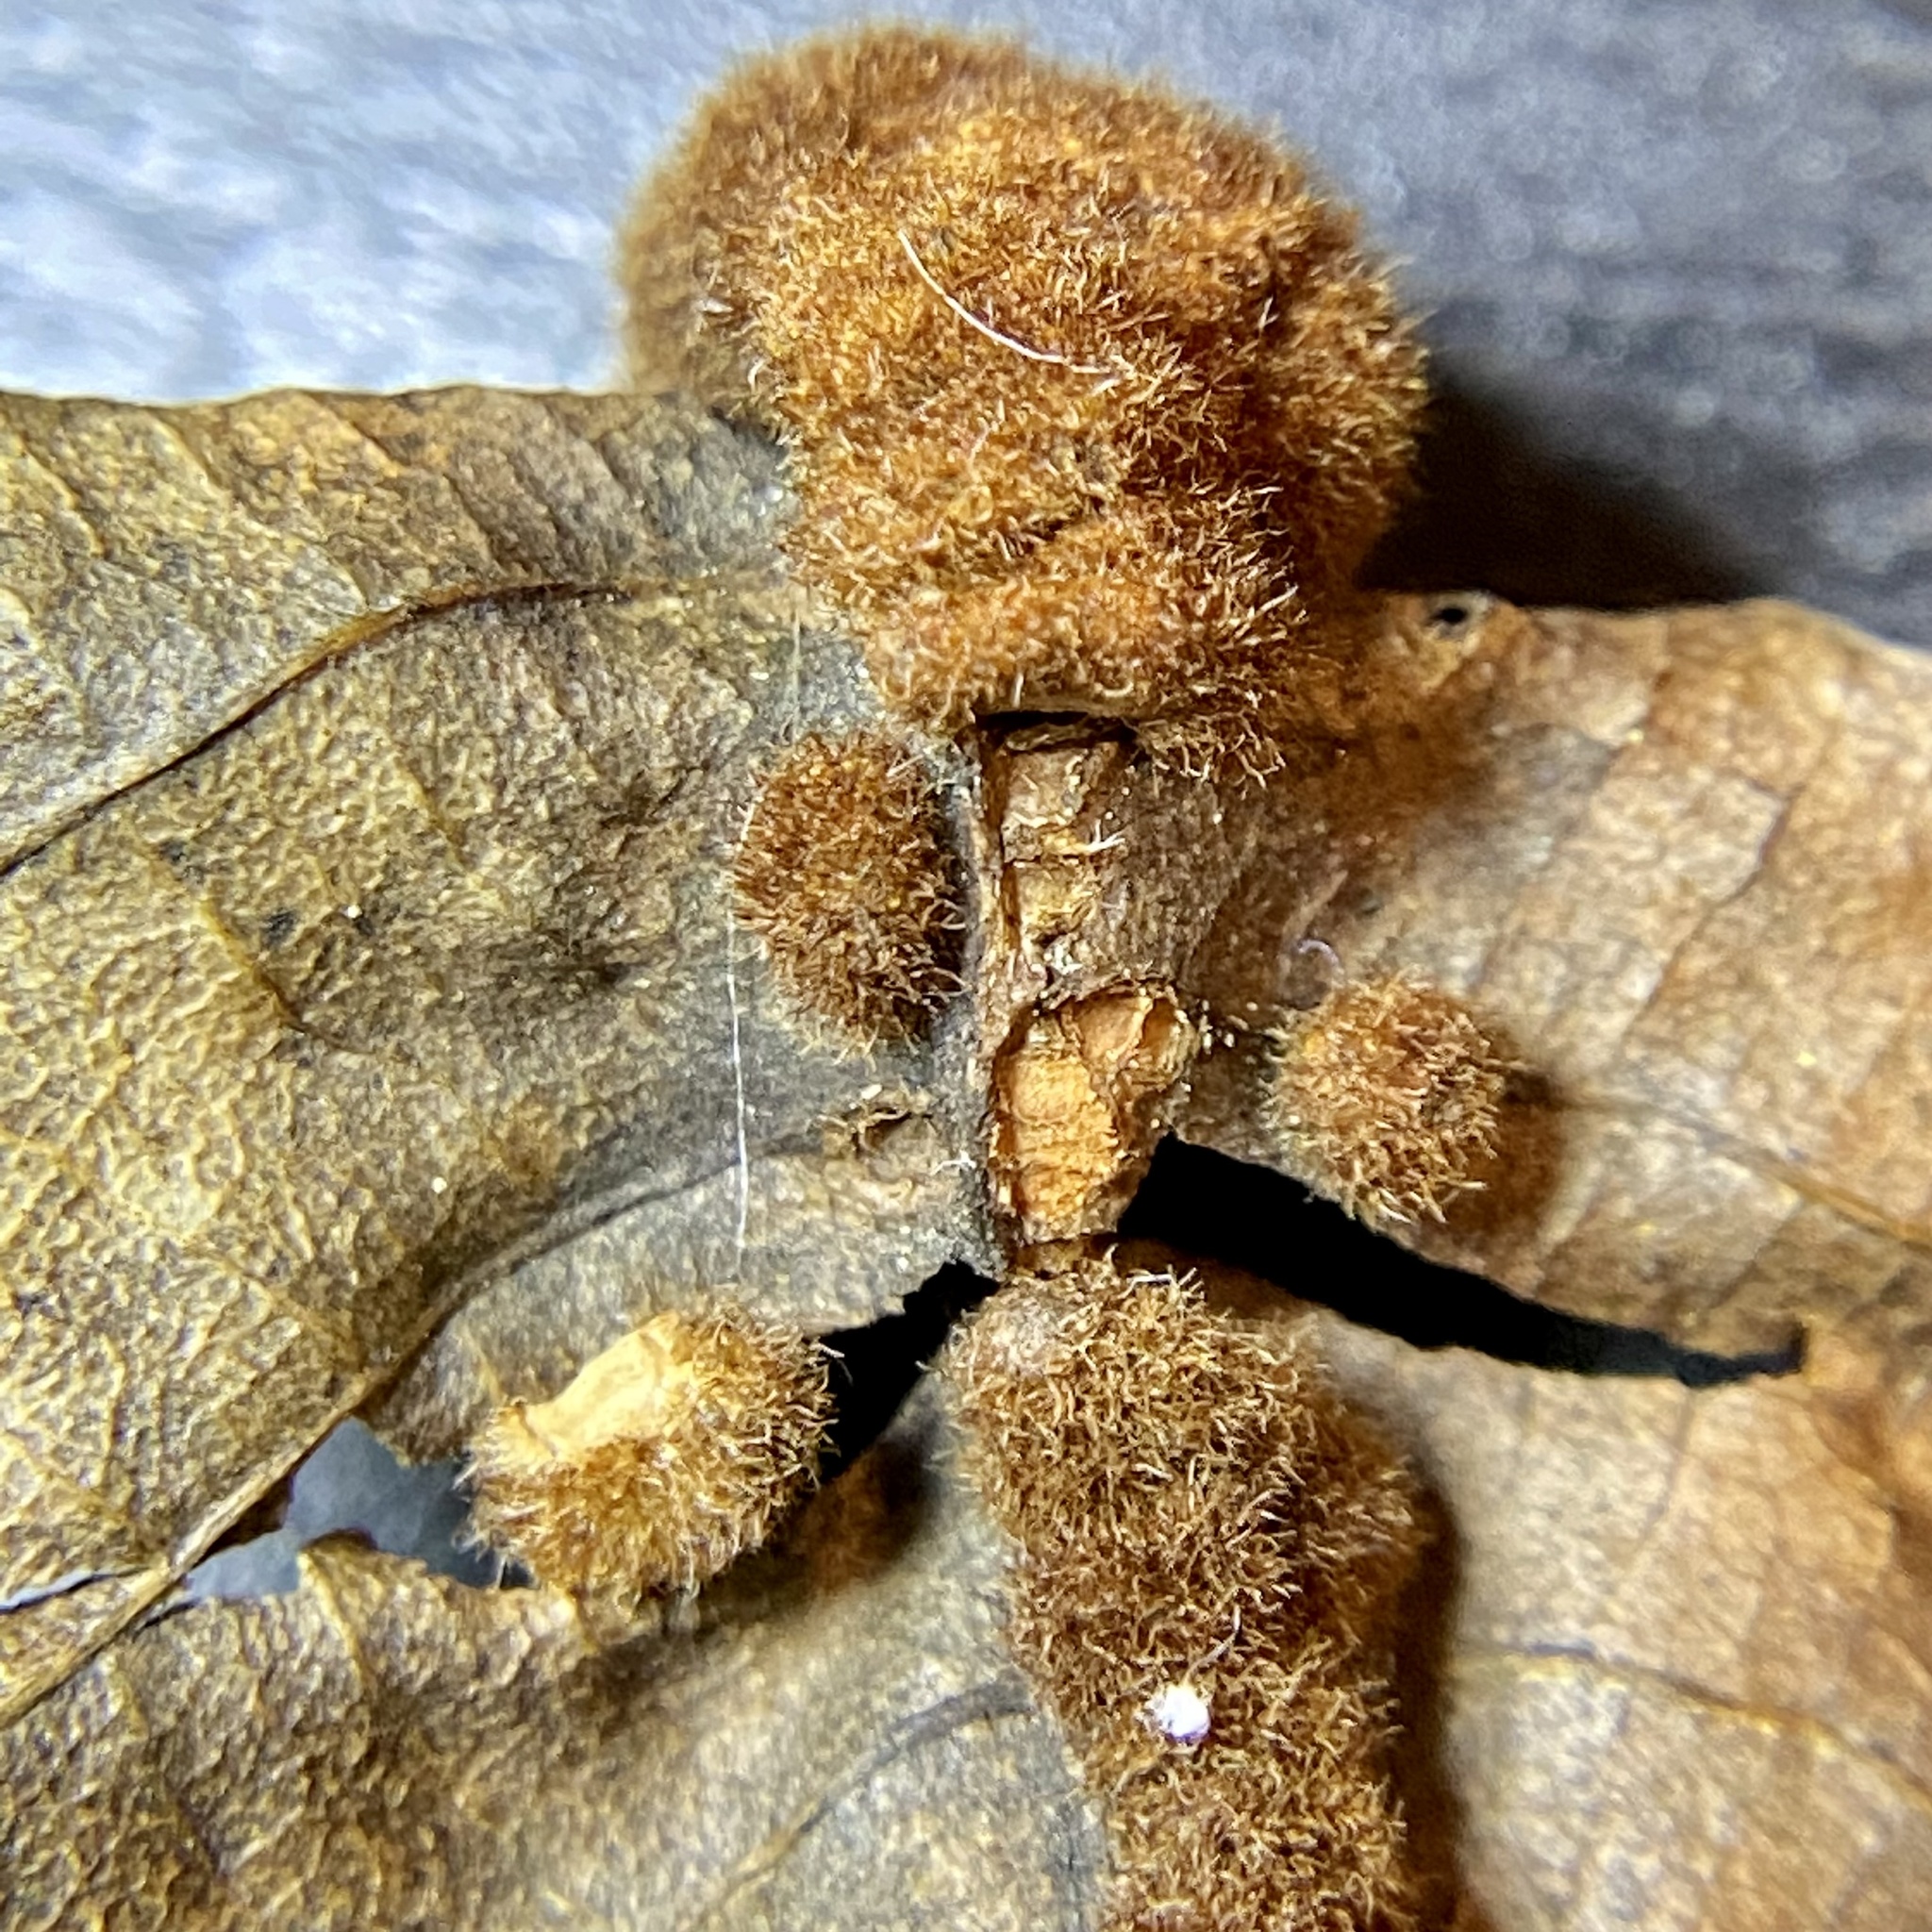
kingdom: Animalia
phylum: Arthropoda
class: Insecta
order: Diptera
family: Cecidomyiidae
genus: Caryomyia
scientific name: Caryomyia aggregata
